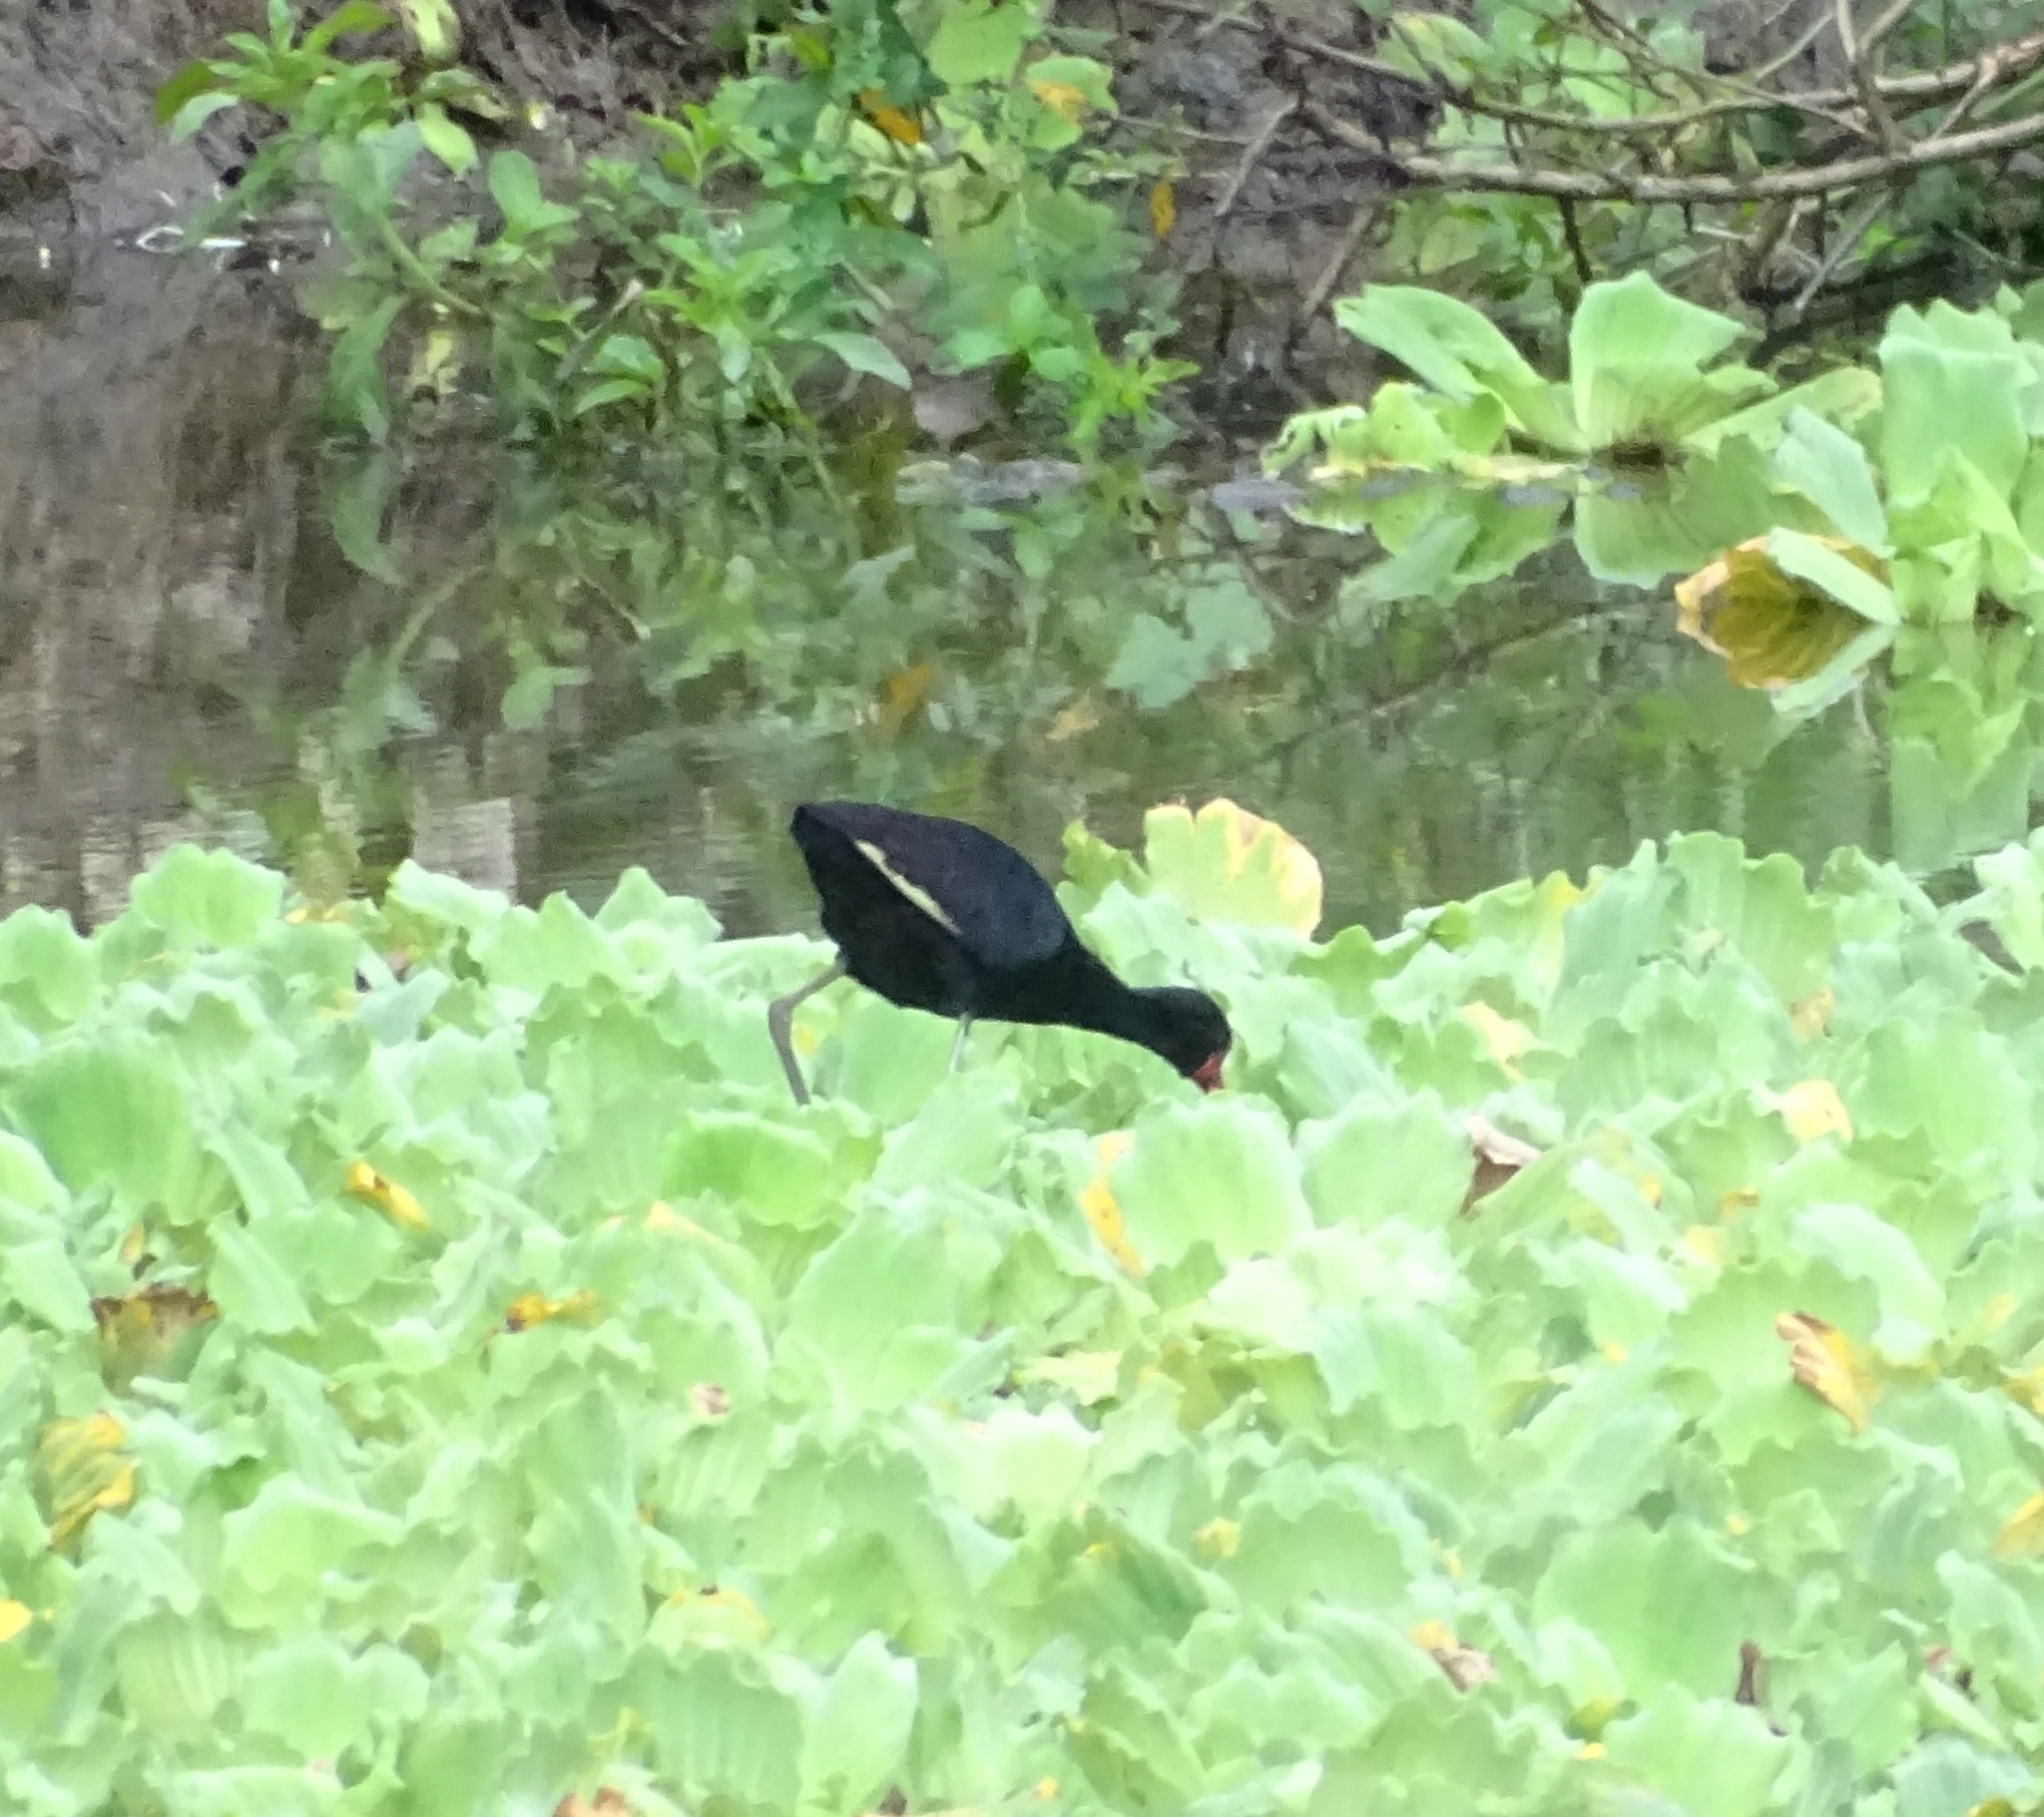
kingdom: Animalia
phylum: Chordata
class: Aves
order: Charadriiformes
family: Jacanidae
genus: Jacana
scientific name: Jacana jacana
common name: Wattled jacana
